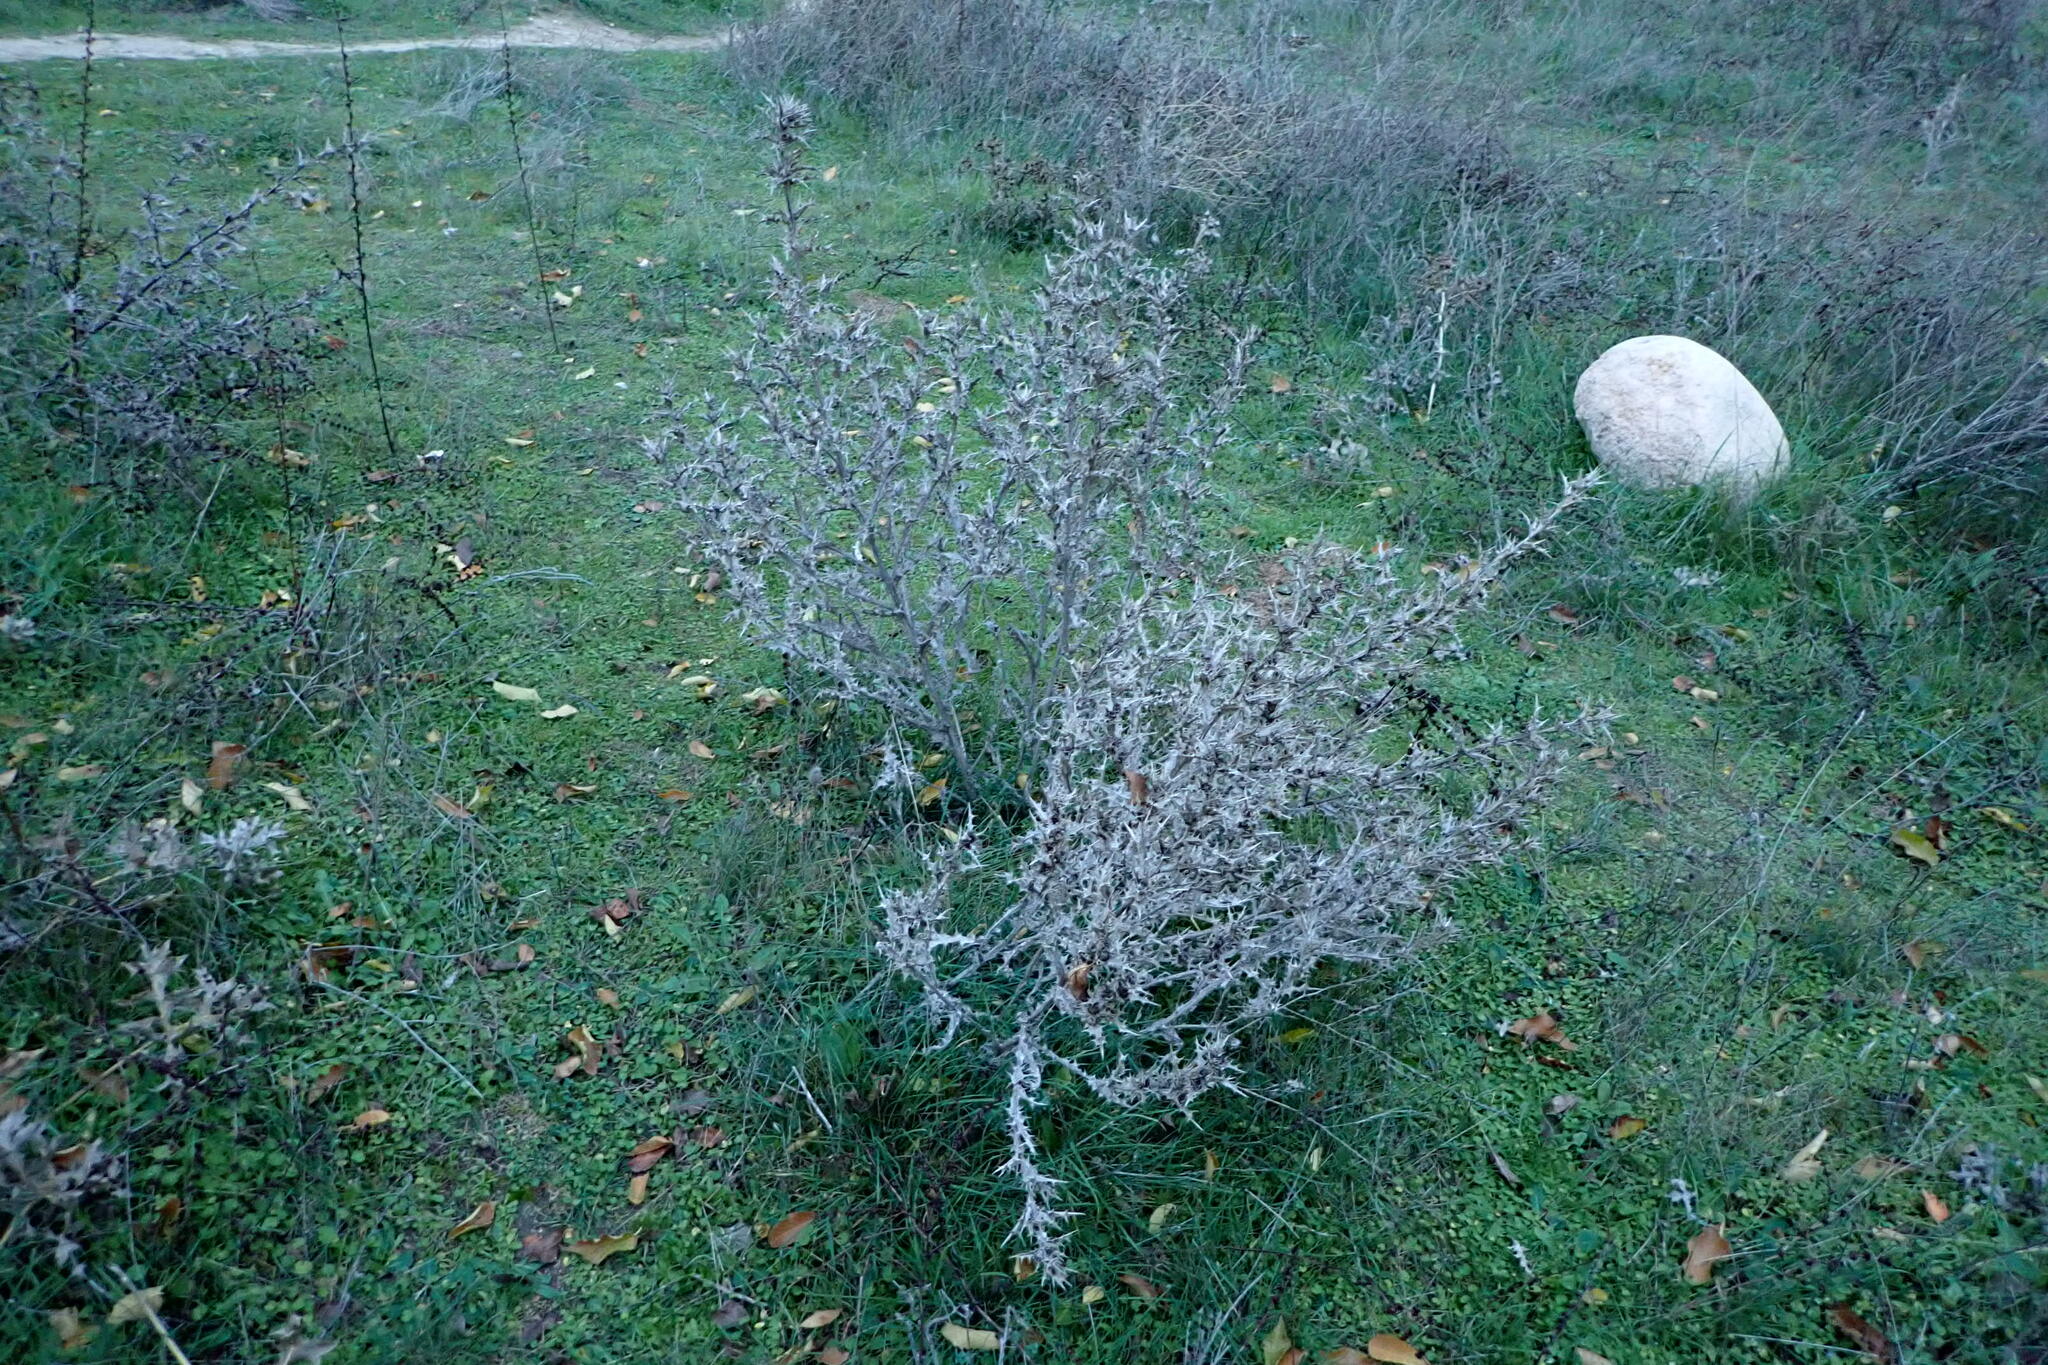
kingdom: Plantae
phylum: Tracheophyta
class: Magnoliopsida
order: Asterales
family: Asteraceae
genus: Scolymus
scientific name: Scolymus hispanicus
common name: Golden thistle
